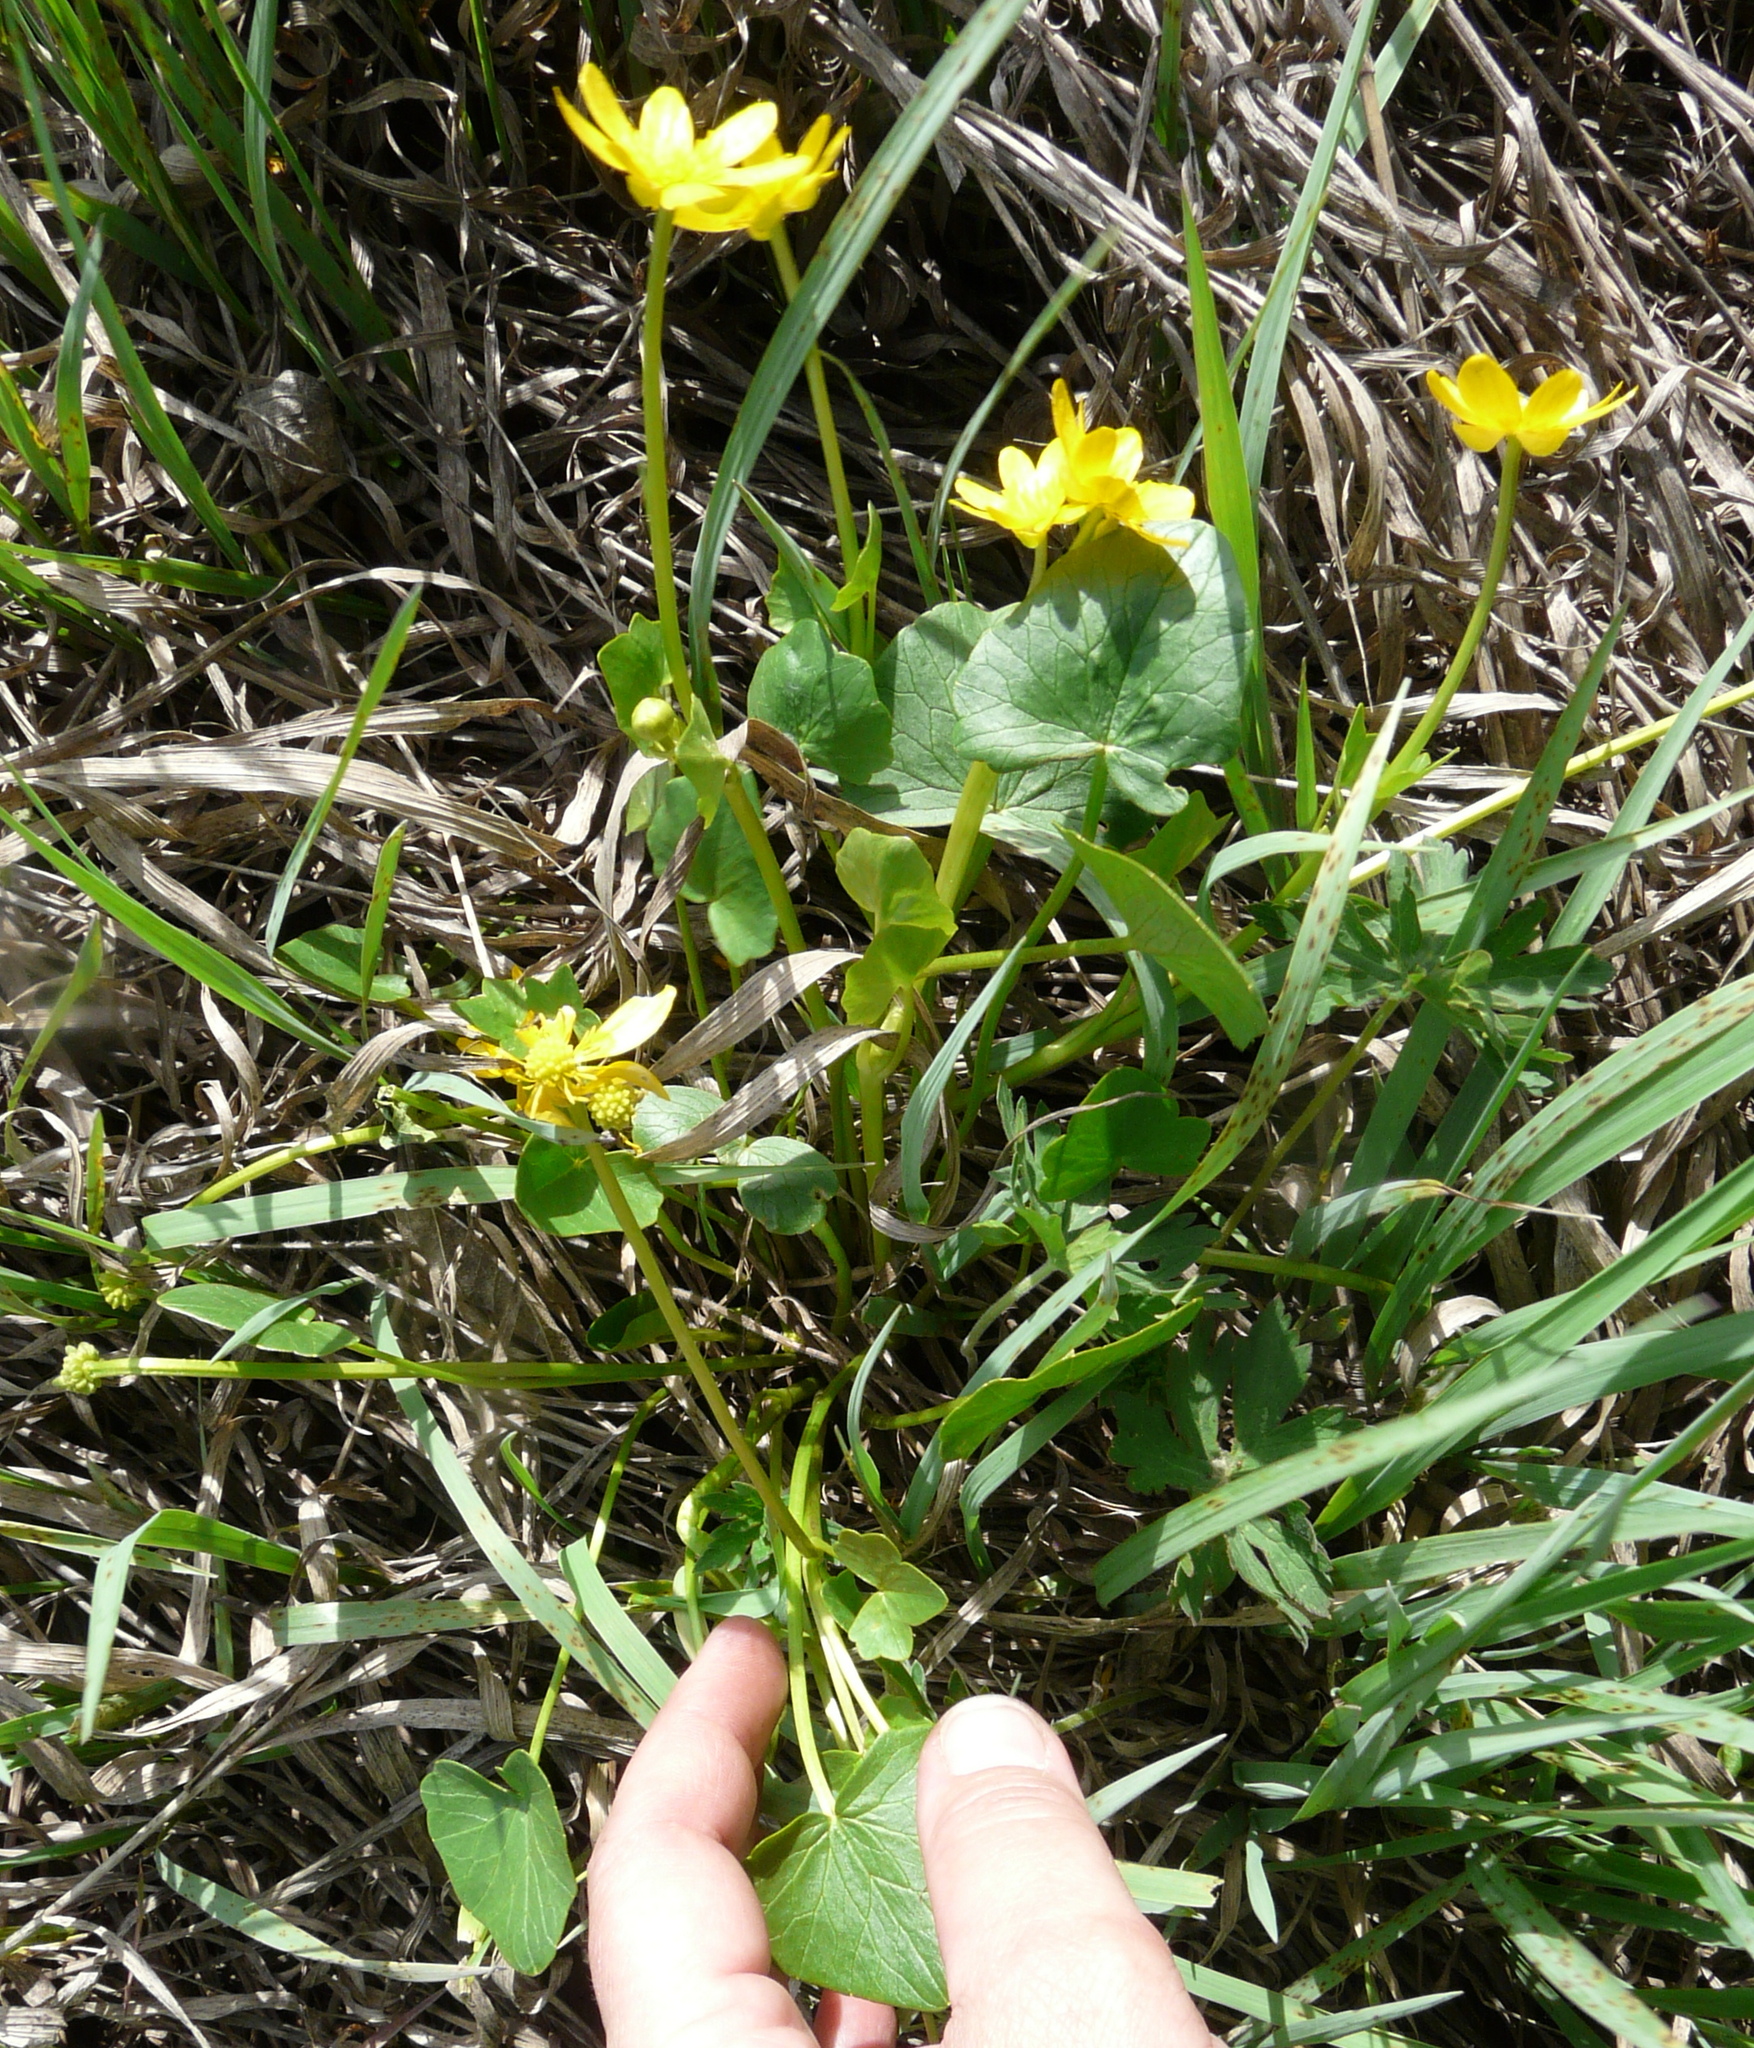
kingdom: Plantae
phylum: Tracheophyta
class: Magnoliopsida
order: Ranunculales
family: Ranunculaceae
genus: Ficaria
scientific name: Ficaria
